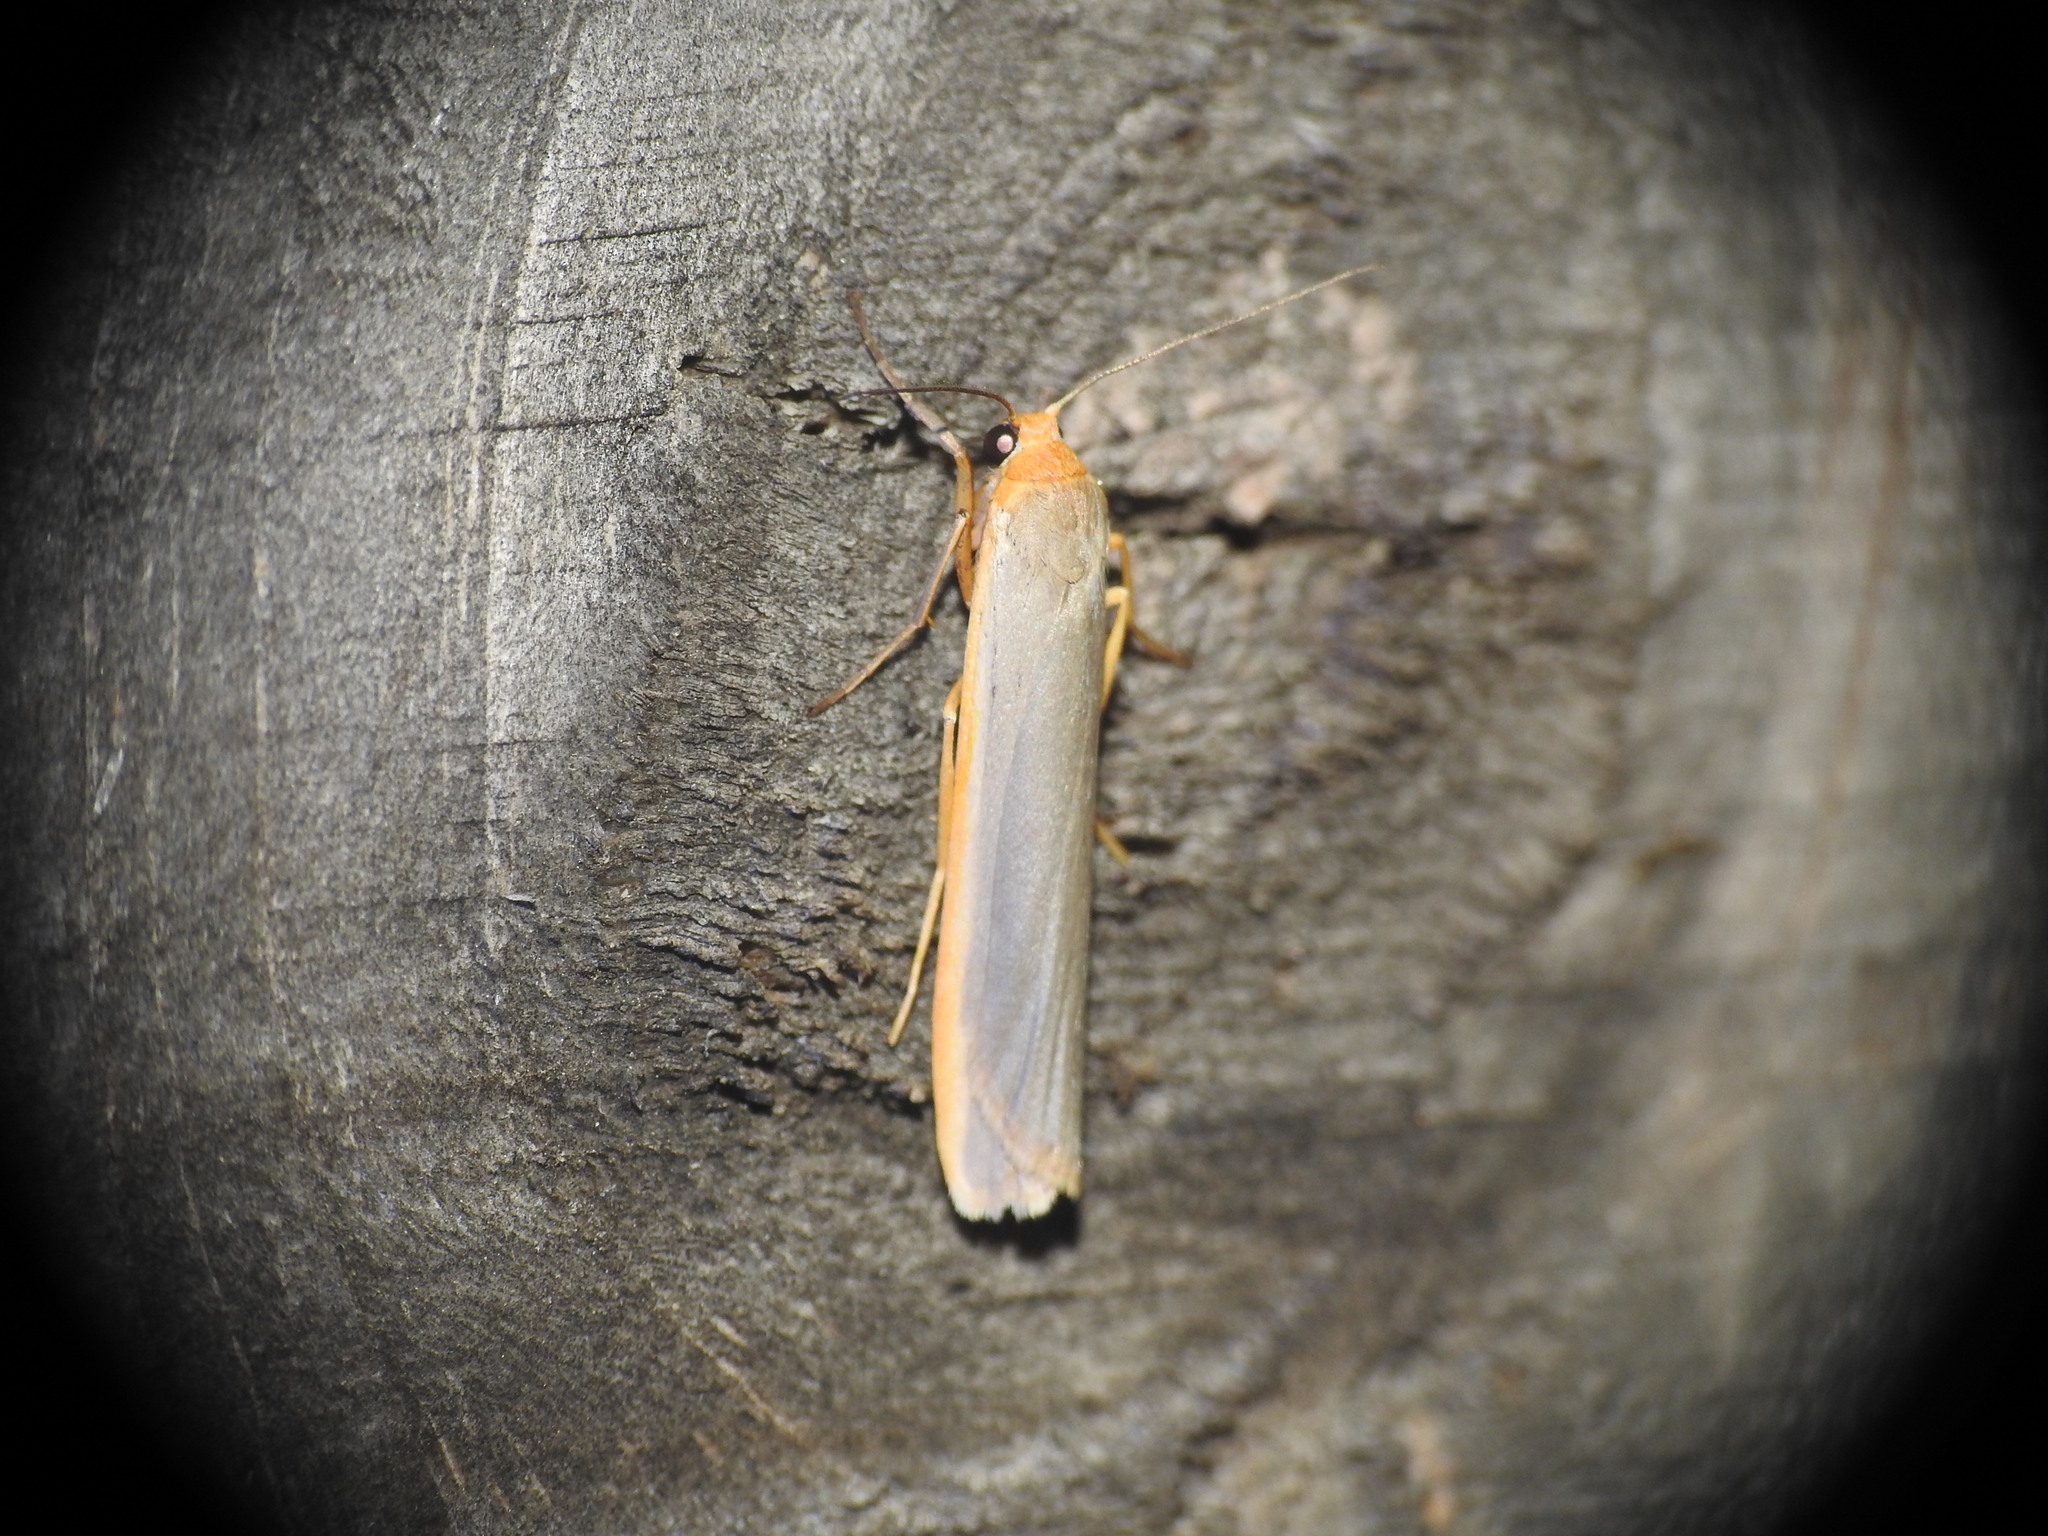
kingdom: Animalia
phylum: Arthropoda
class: Insecta
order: Lepidoptera
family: Erebidae
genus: Manulea
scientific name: Manulea complana
